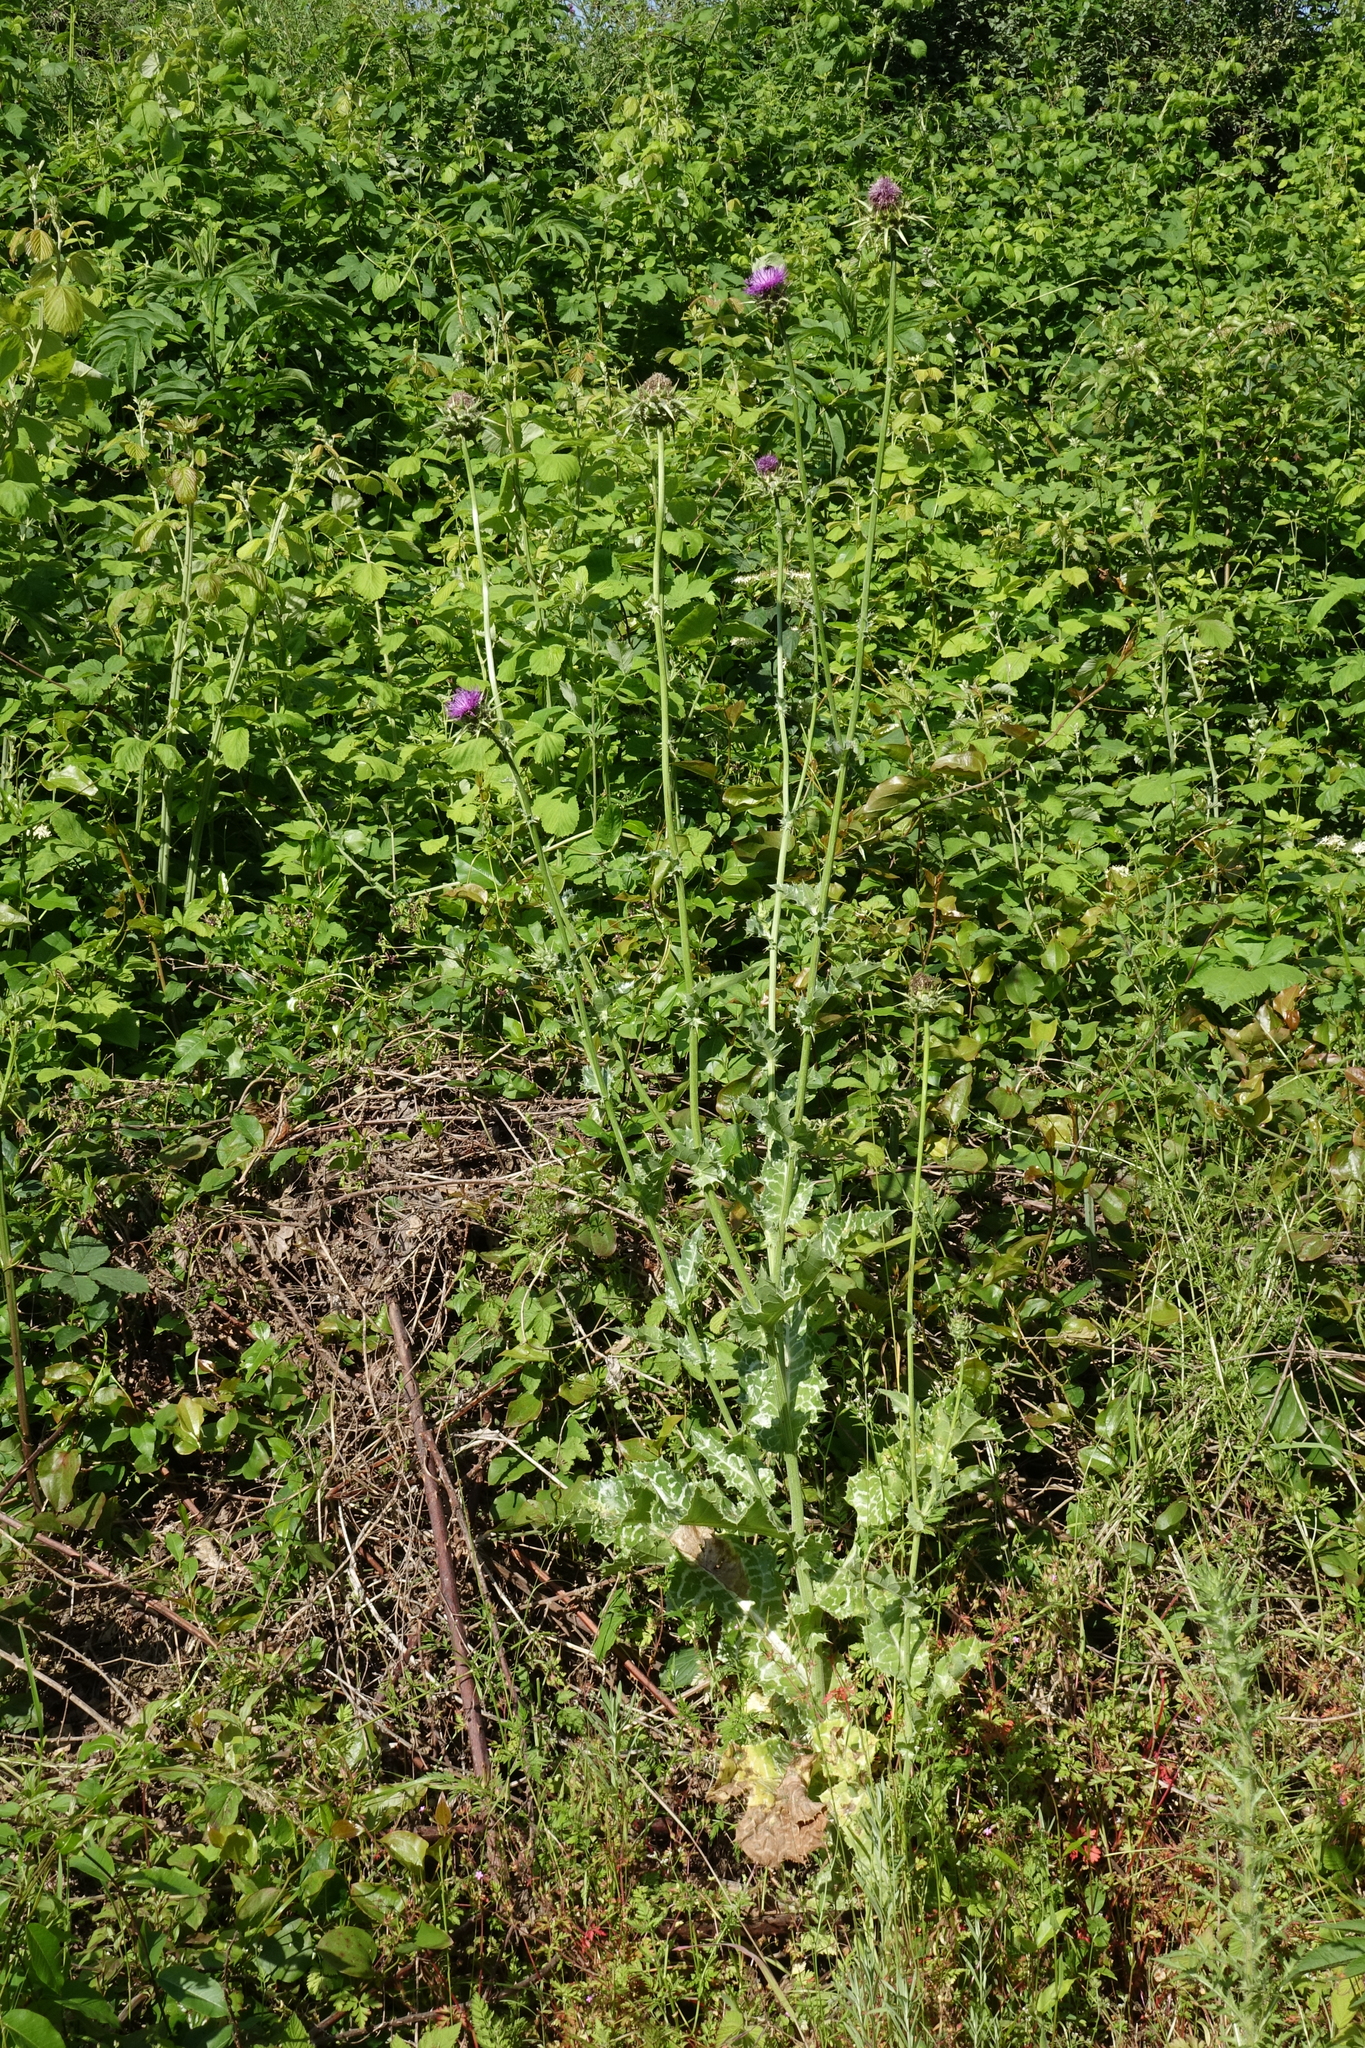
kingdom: Plantae
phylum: Tracheophyta
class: Magnoliopsida
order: Asterales
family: Asteraceae
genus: Silybum
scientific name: Silybum marianum
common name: Milk thistle
